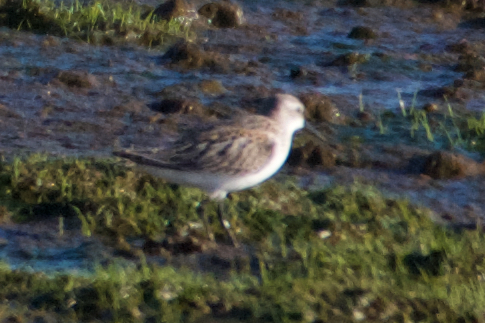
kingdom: Animalia
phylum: Chordata
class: Aves
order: Charadriiformes
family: Scolopacidae
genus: Calidris
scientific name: Calidris mauri
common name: Western sandpiper
